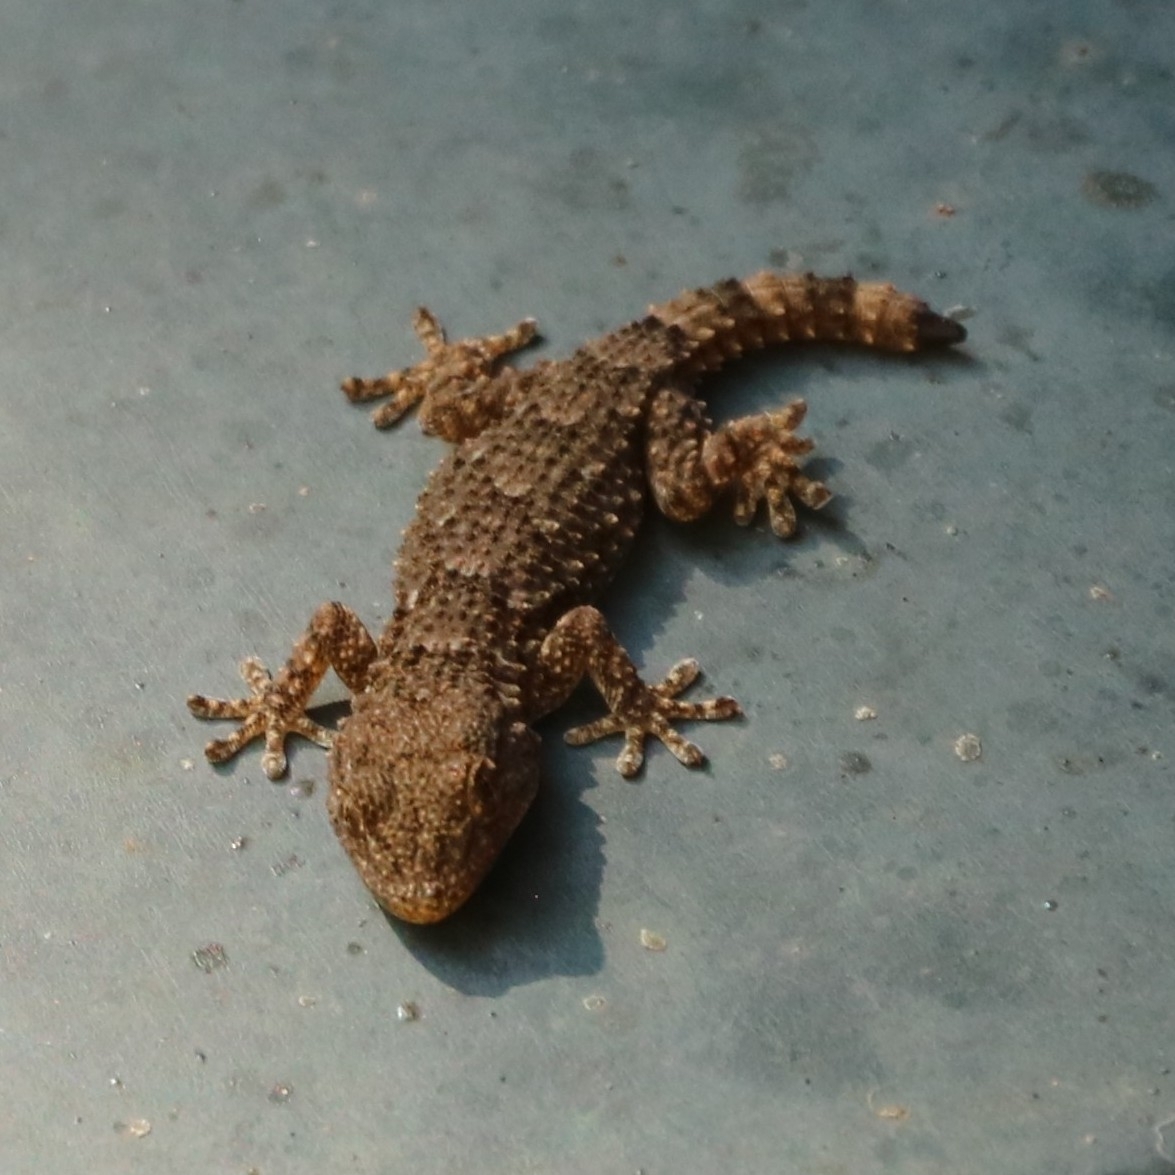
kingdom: Animalia
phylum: Chordata
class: Squamata
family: Phyllodactylidae
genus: Tarentola
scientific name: Tarentola mauritanica
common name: Moorish gecko
